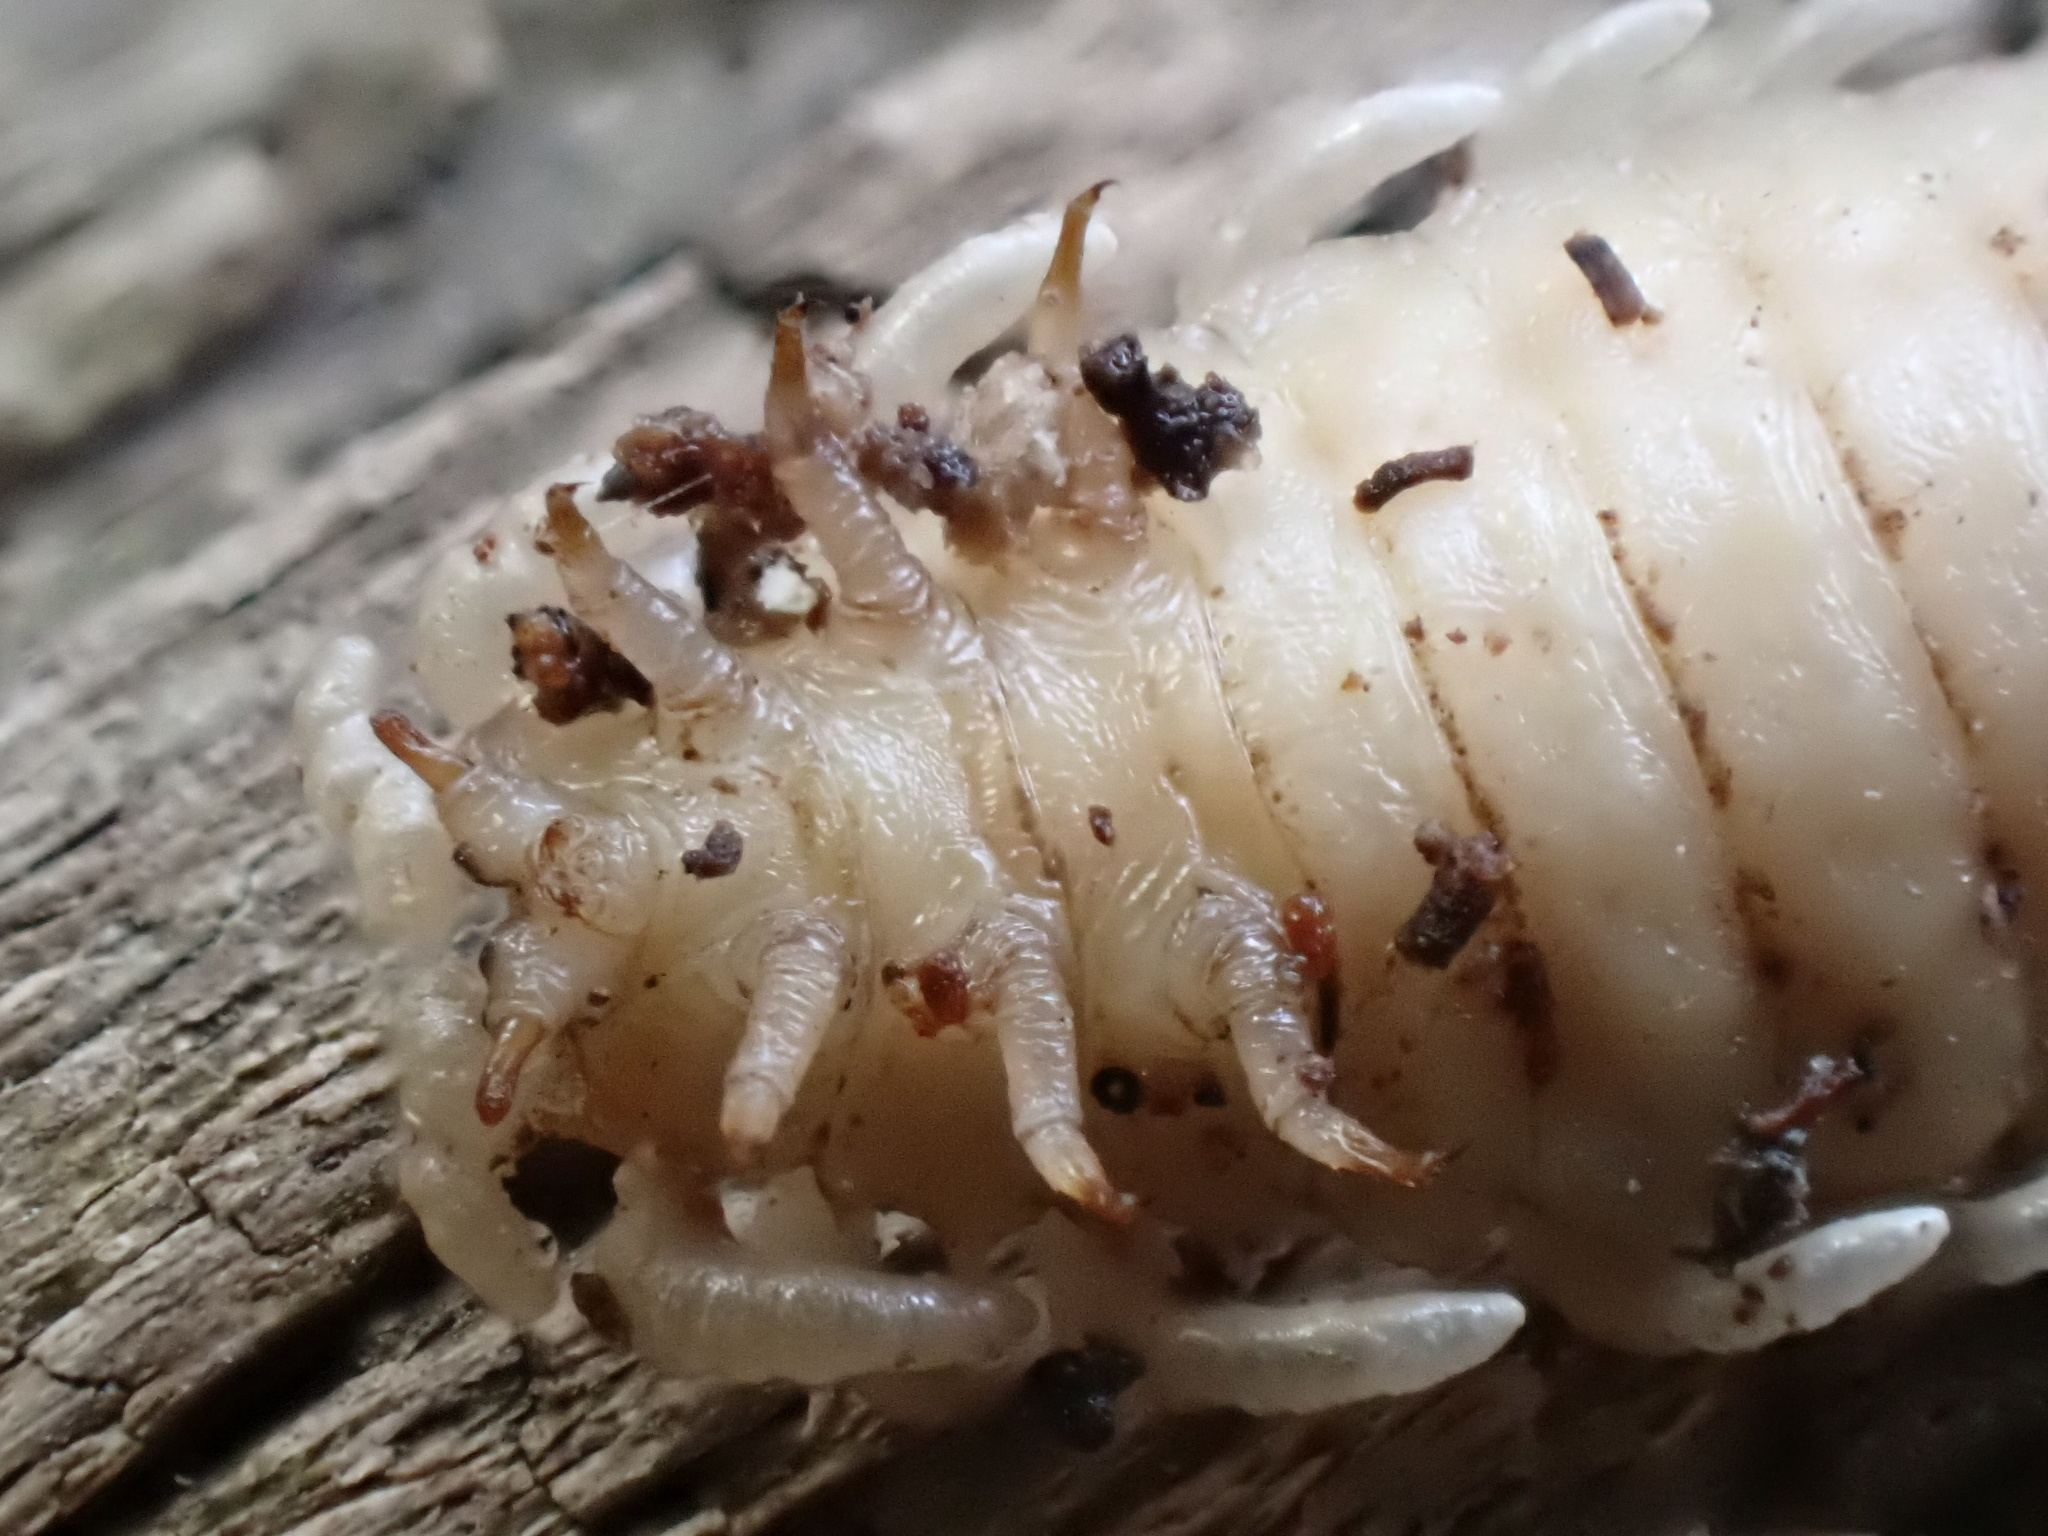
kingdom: Animalia
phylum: Arthropoda
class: Insecta
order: Coleoptera
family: Lycidae
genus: Caenia
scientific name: Caenia dimidiata
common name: Terminal net-winged beetle
